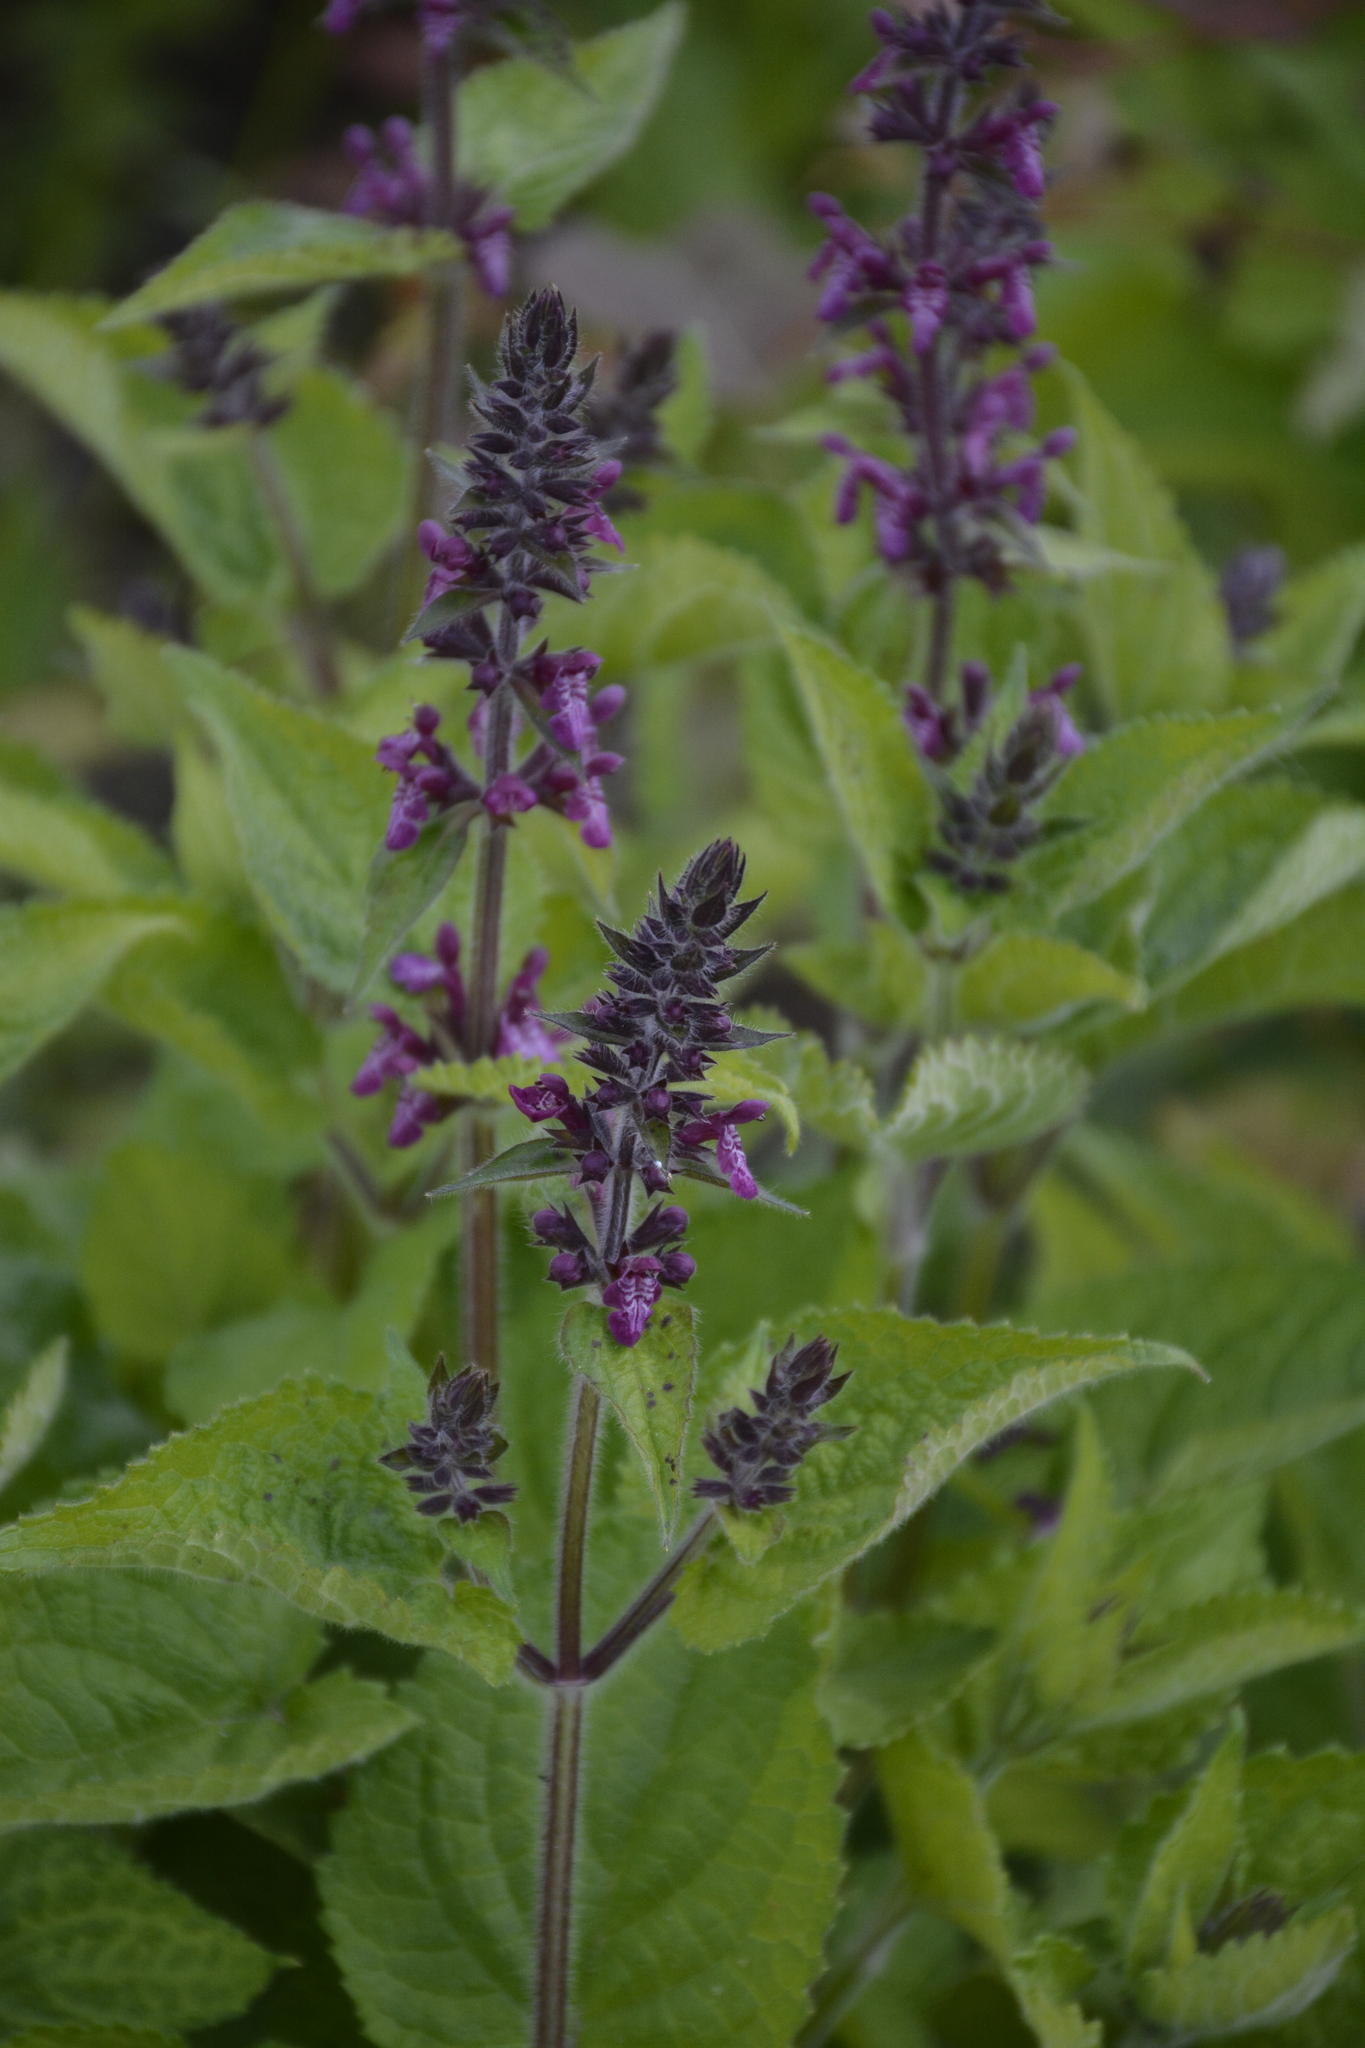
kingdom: Plantae
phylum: Tracheophyta
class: Magnoliopsida
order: Lamiales
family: Lamiaceae
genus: Stachys
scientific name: Stachys sylvatica
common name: Hedge woundwort
